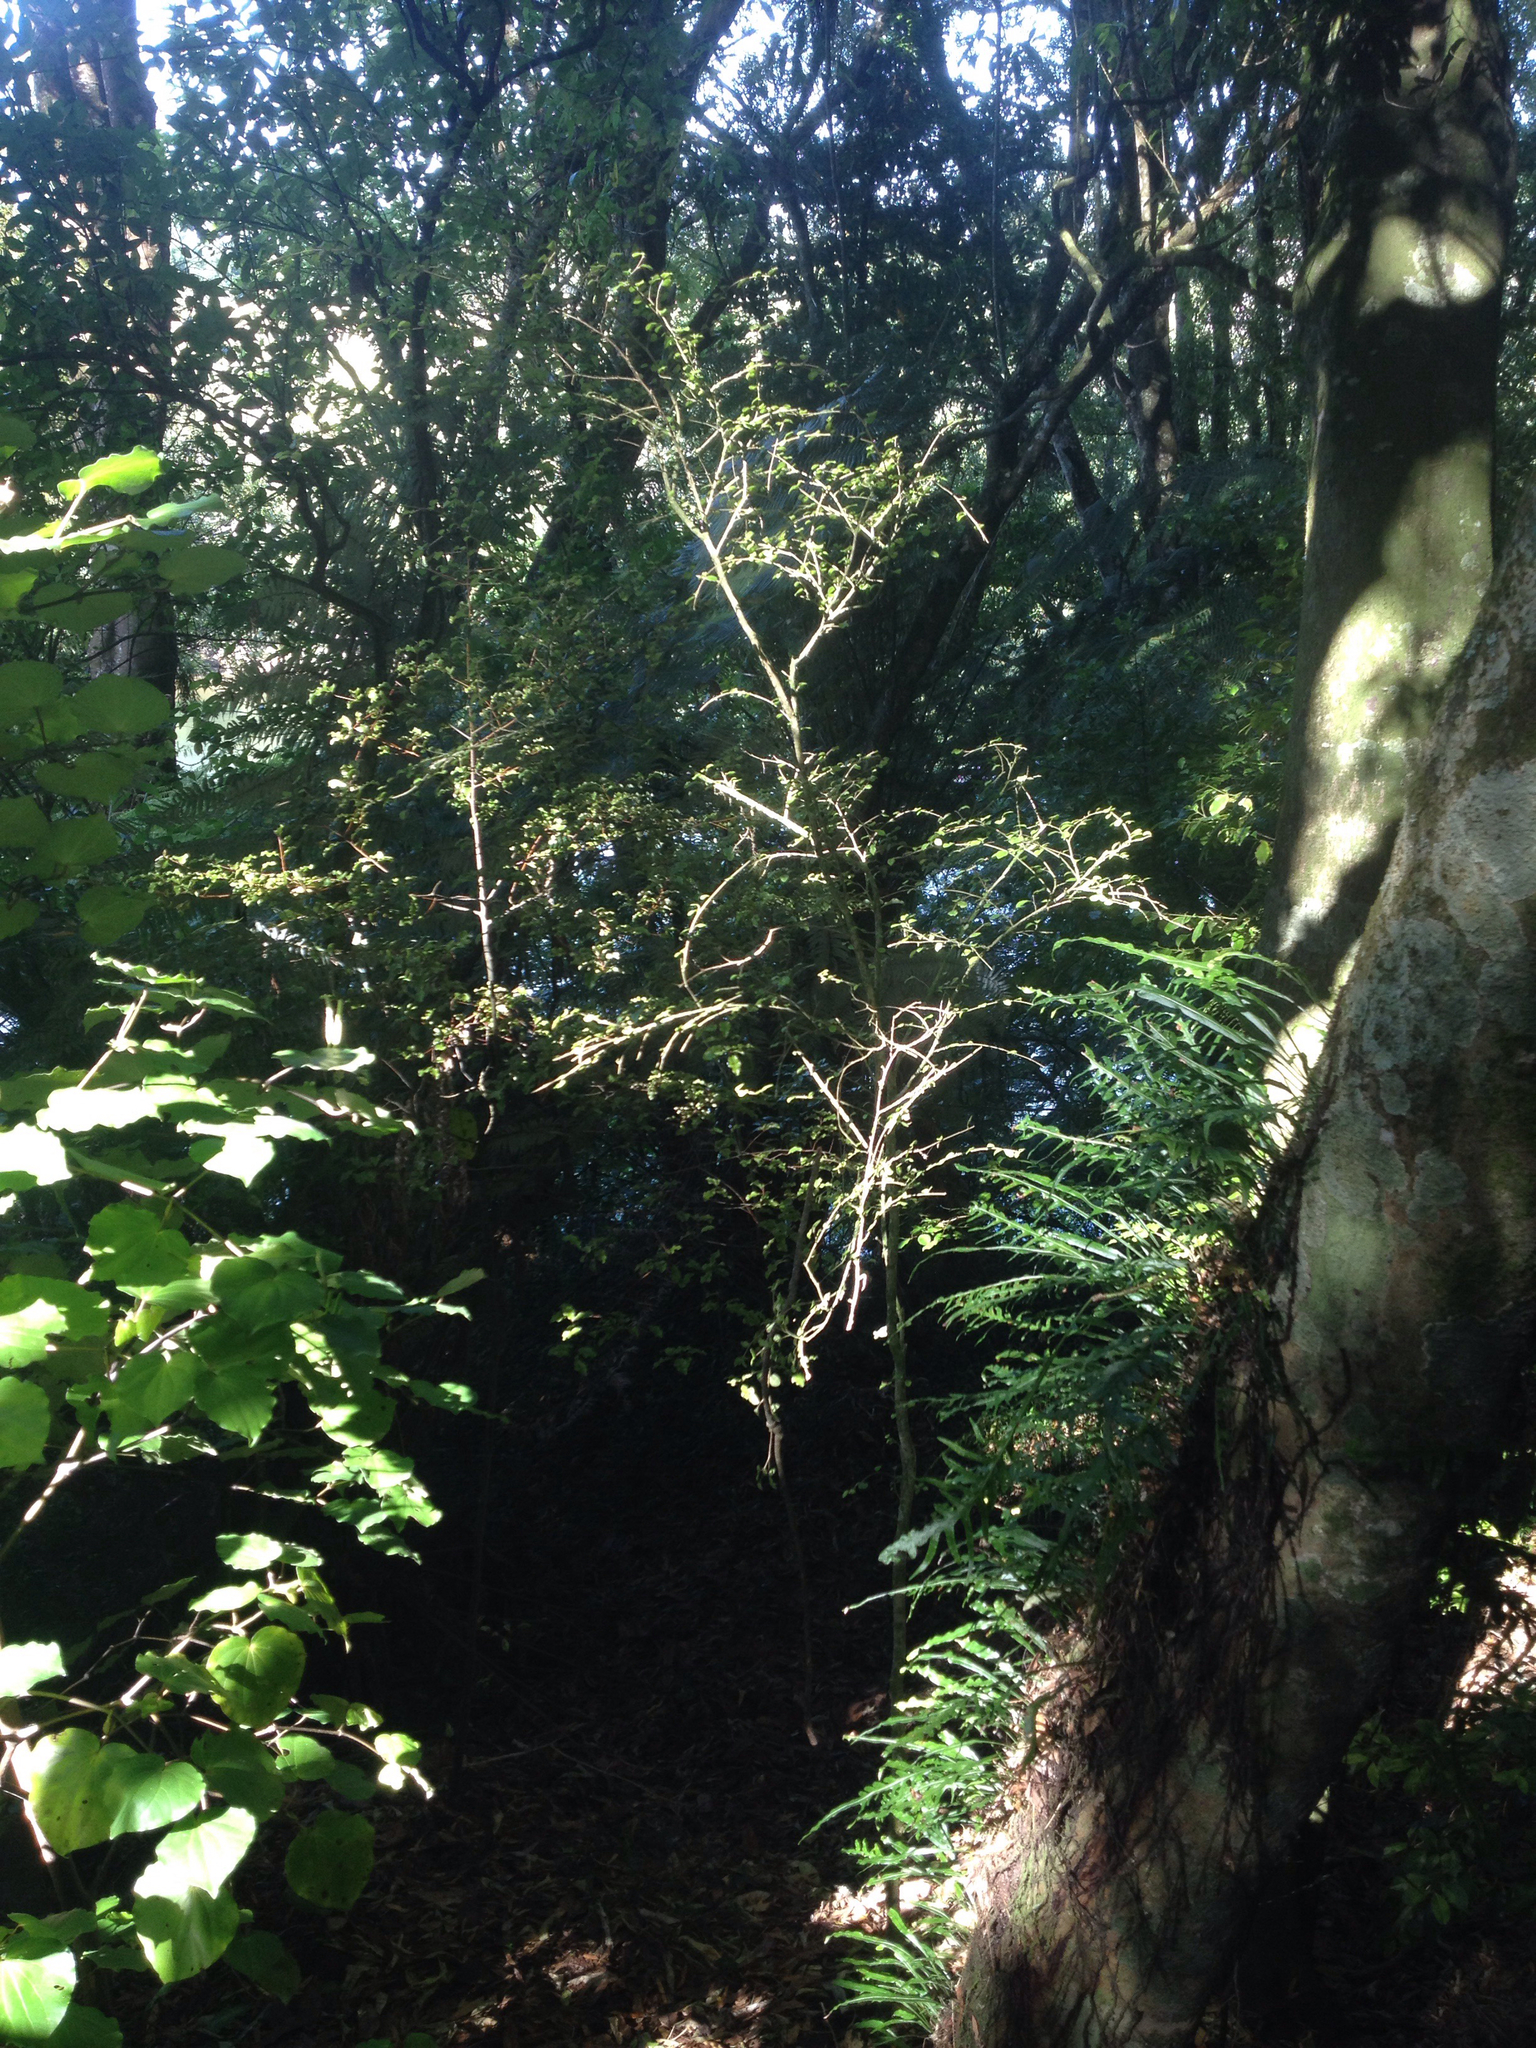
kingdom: Plantae
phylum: Tracheophyta
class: Magnoliopsida
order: Rosales
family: Moraceae
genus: Paratrophis
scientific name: Paratrophis microphylla
